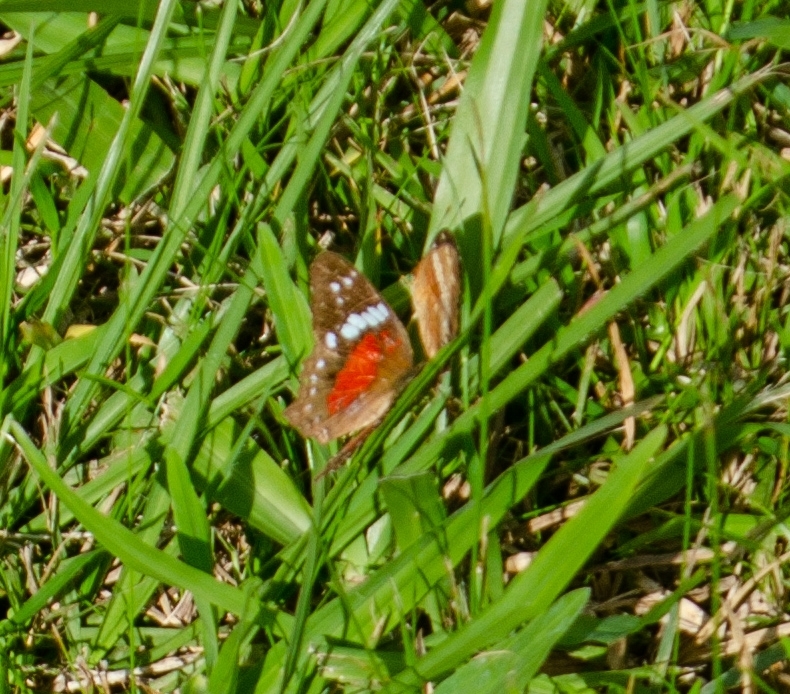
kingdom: Animalia
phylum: Arthropoda
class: Insecta
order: Lepidoptera
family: Nymphalidae
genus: Anartia
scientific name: Anartia amathea
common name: Red peacock
